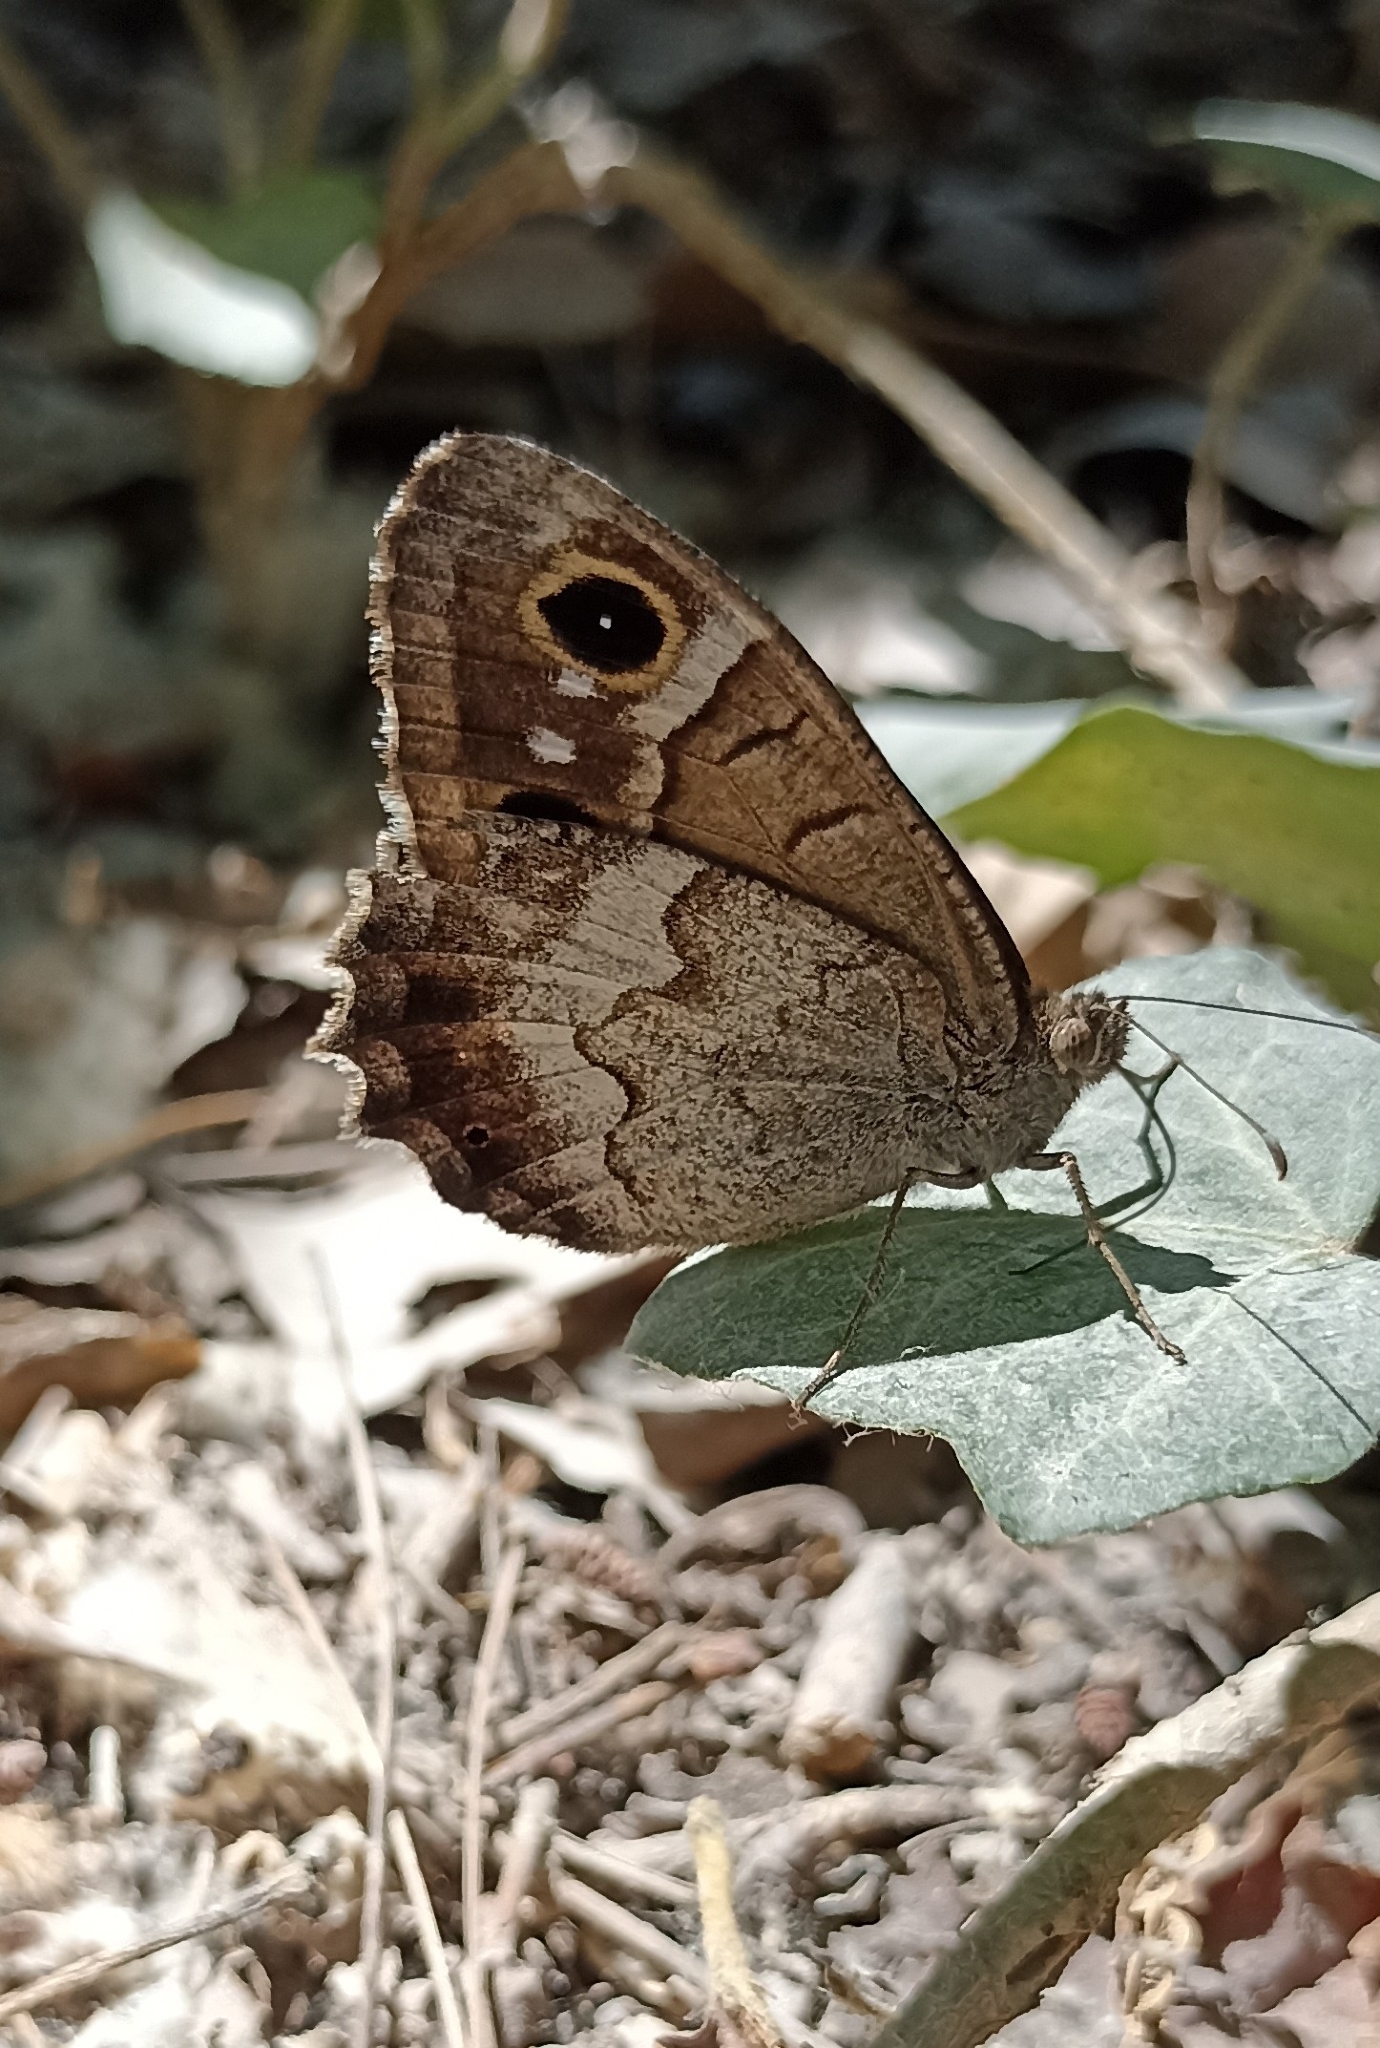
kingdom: Animalia
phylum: Arthropoda
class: Insecta
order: Lepidoptera
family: Nymphalidae
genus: Hipparchia
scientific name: Hipparchia statilinus
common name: Tree grayling
